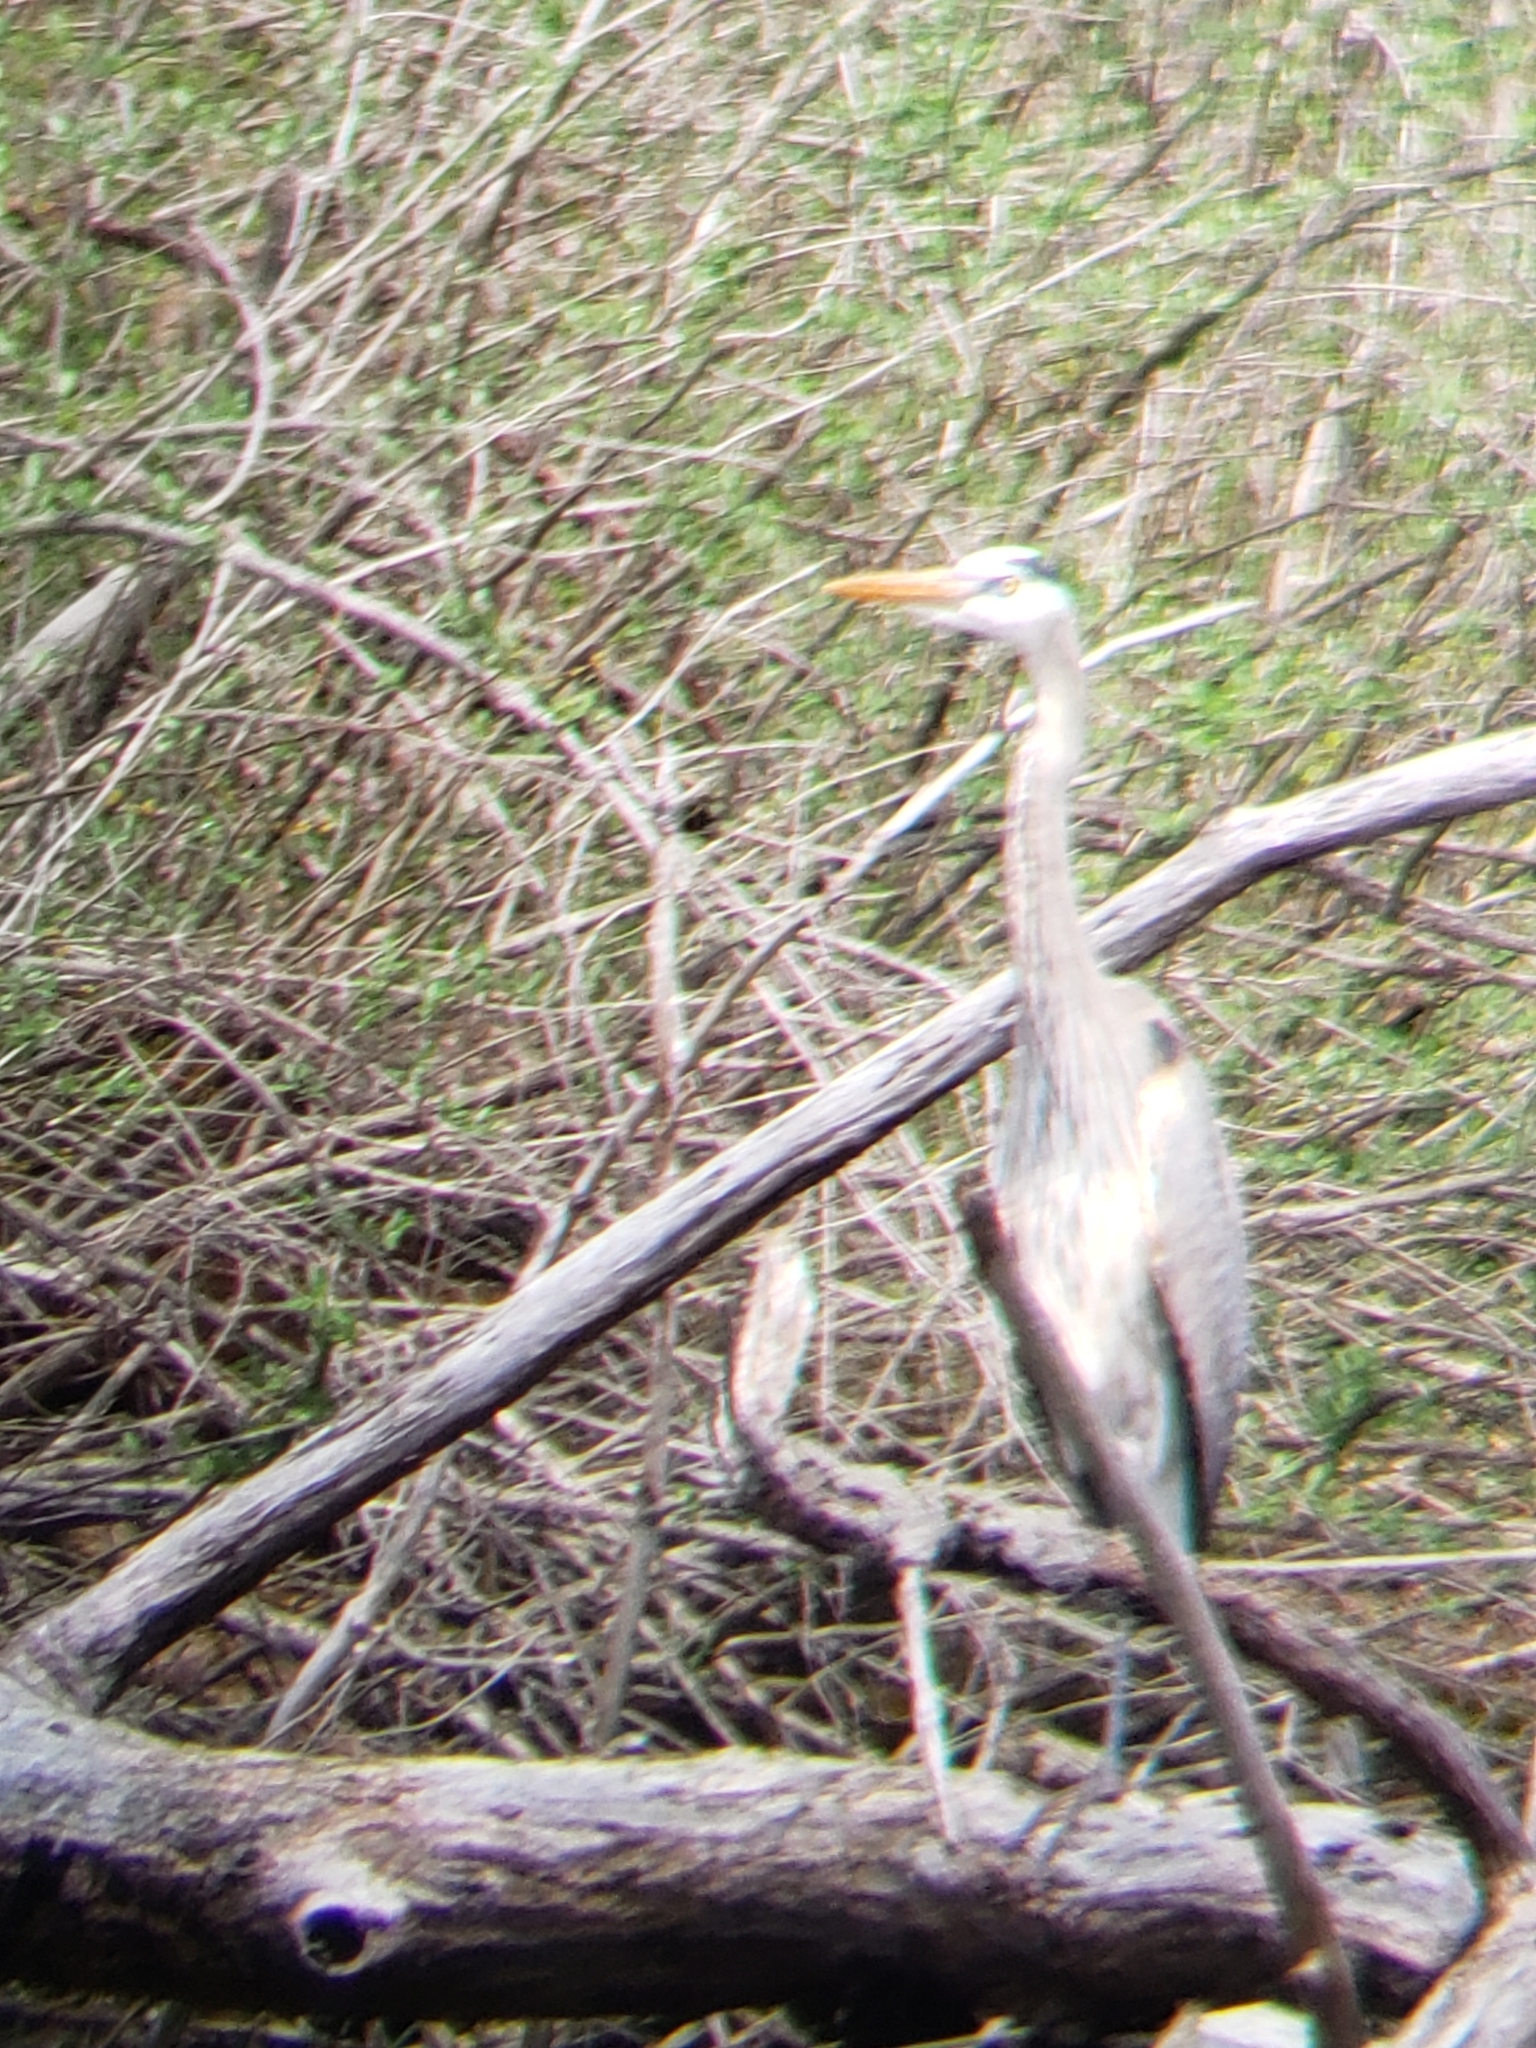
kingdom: Animalia
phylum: Chordata
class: Aves
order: Pelecaniformes
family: Ardeidae
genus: Ardea
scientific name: Ardea herodias
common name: Great blue heron
